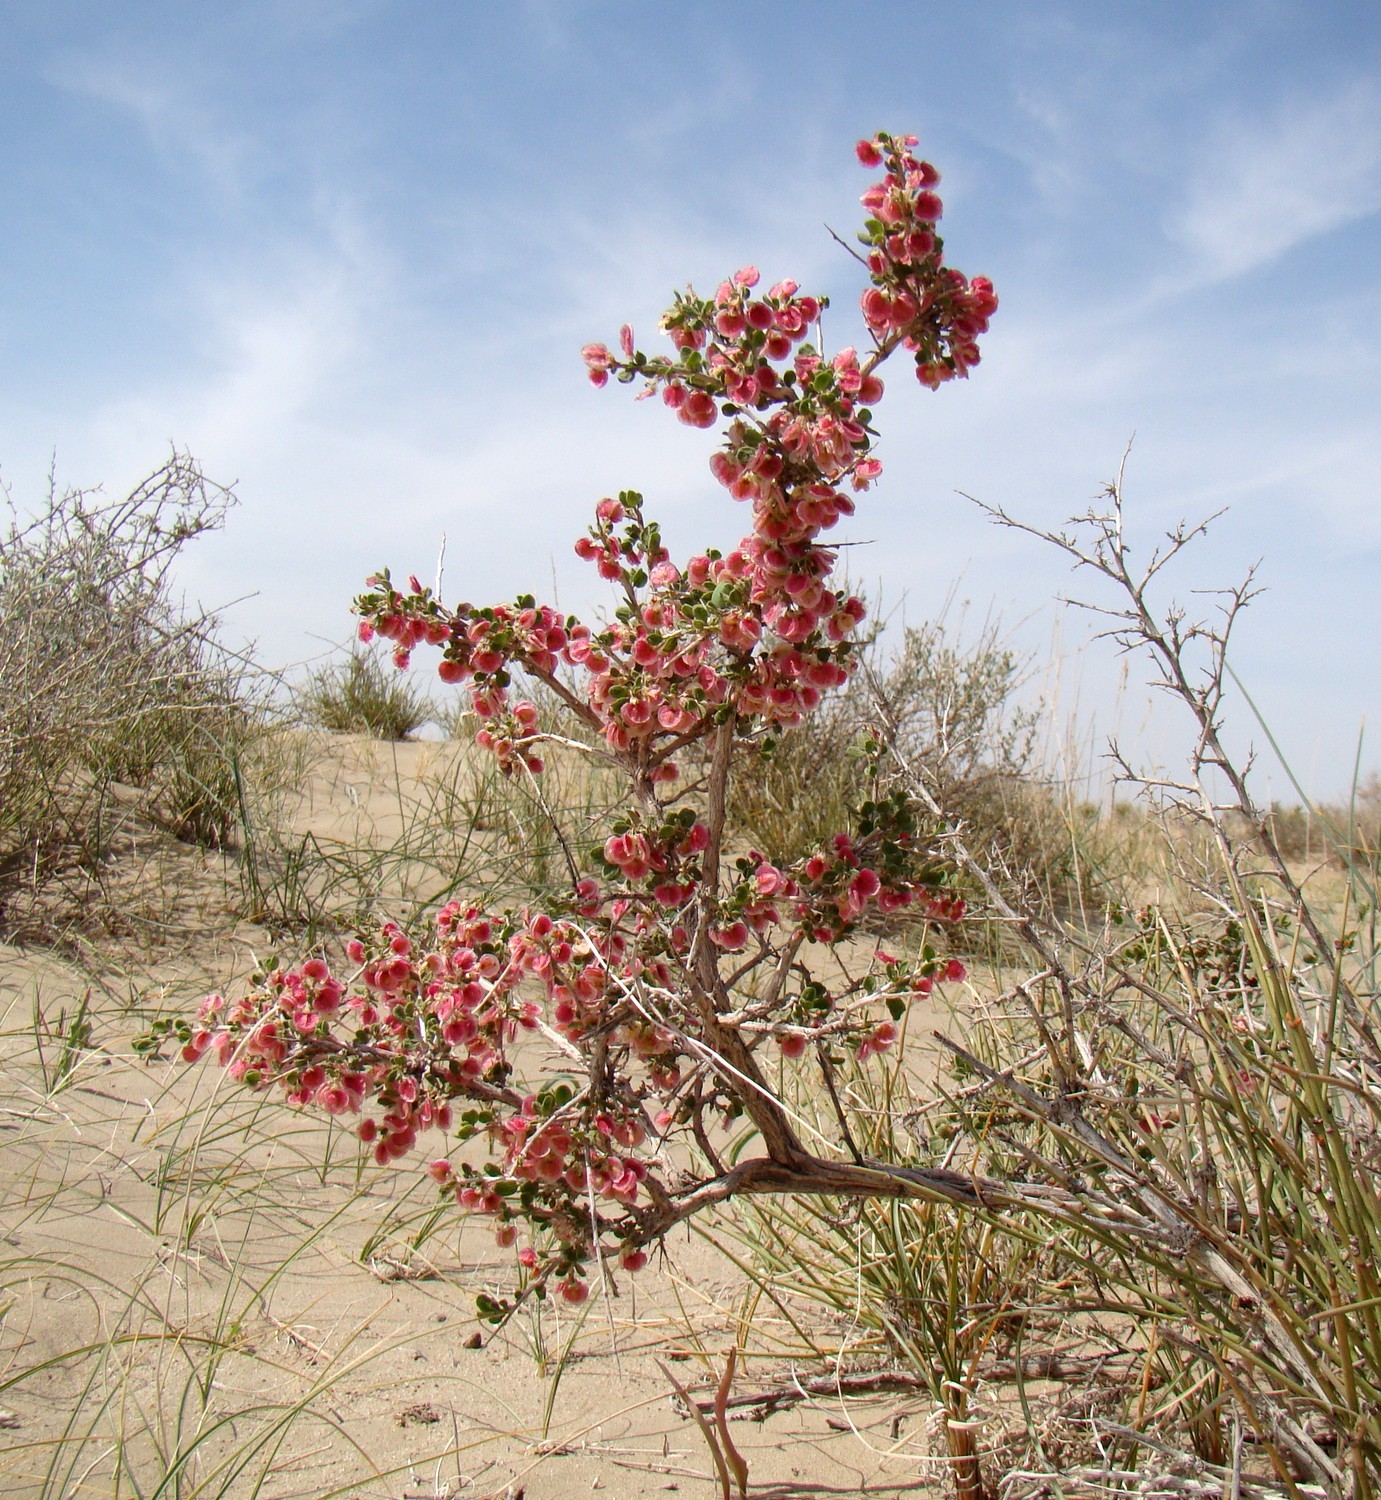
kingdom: Plantae
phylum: Tracheophyta
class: Magnoliopsida
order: Caryophyllales
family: Polygonaceae
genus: Atraphaxis
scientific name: Atraphaxis spinosa
